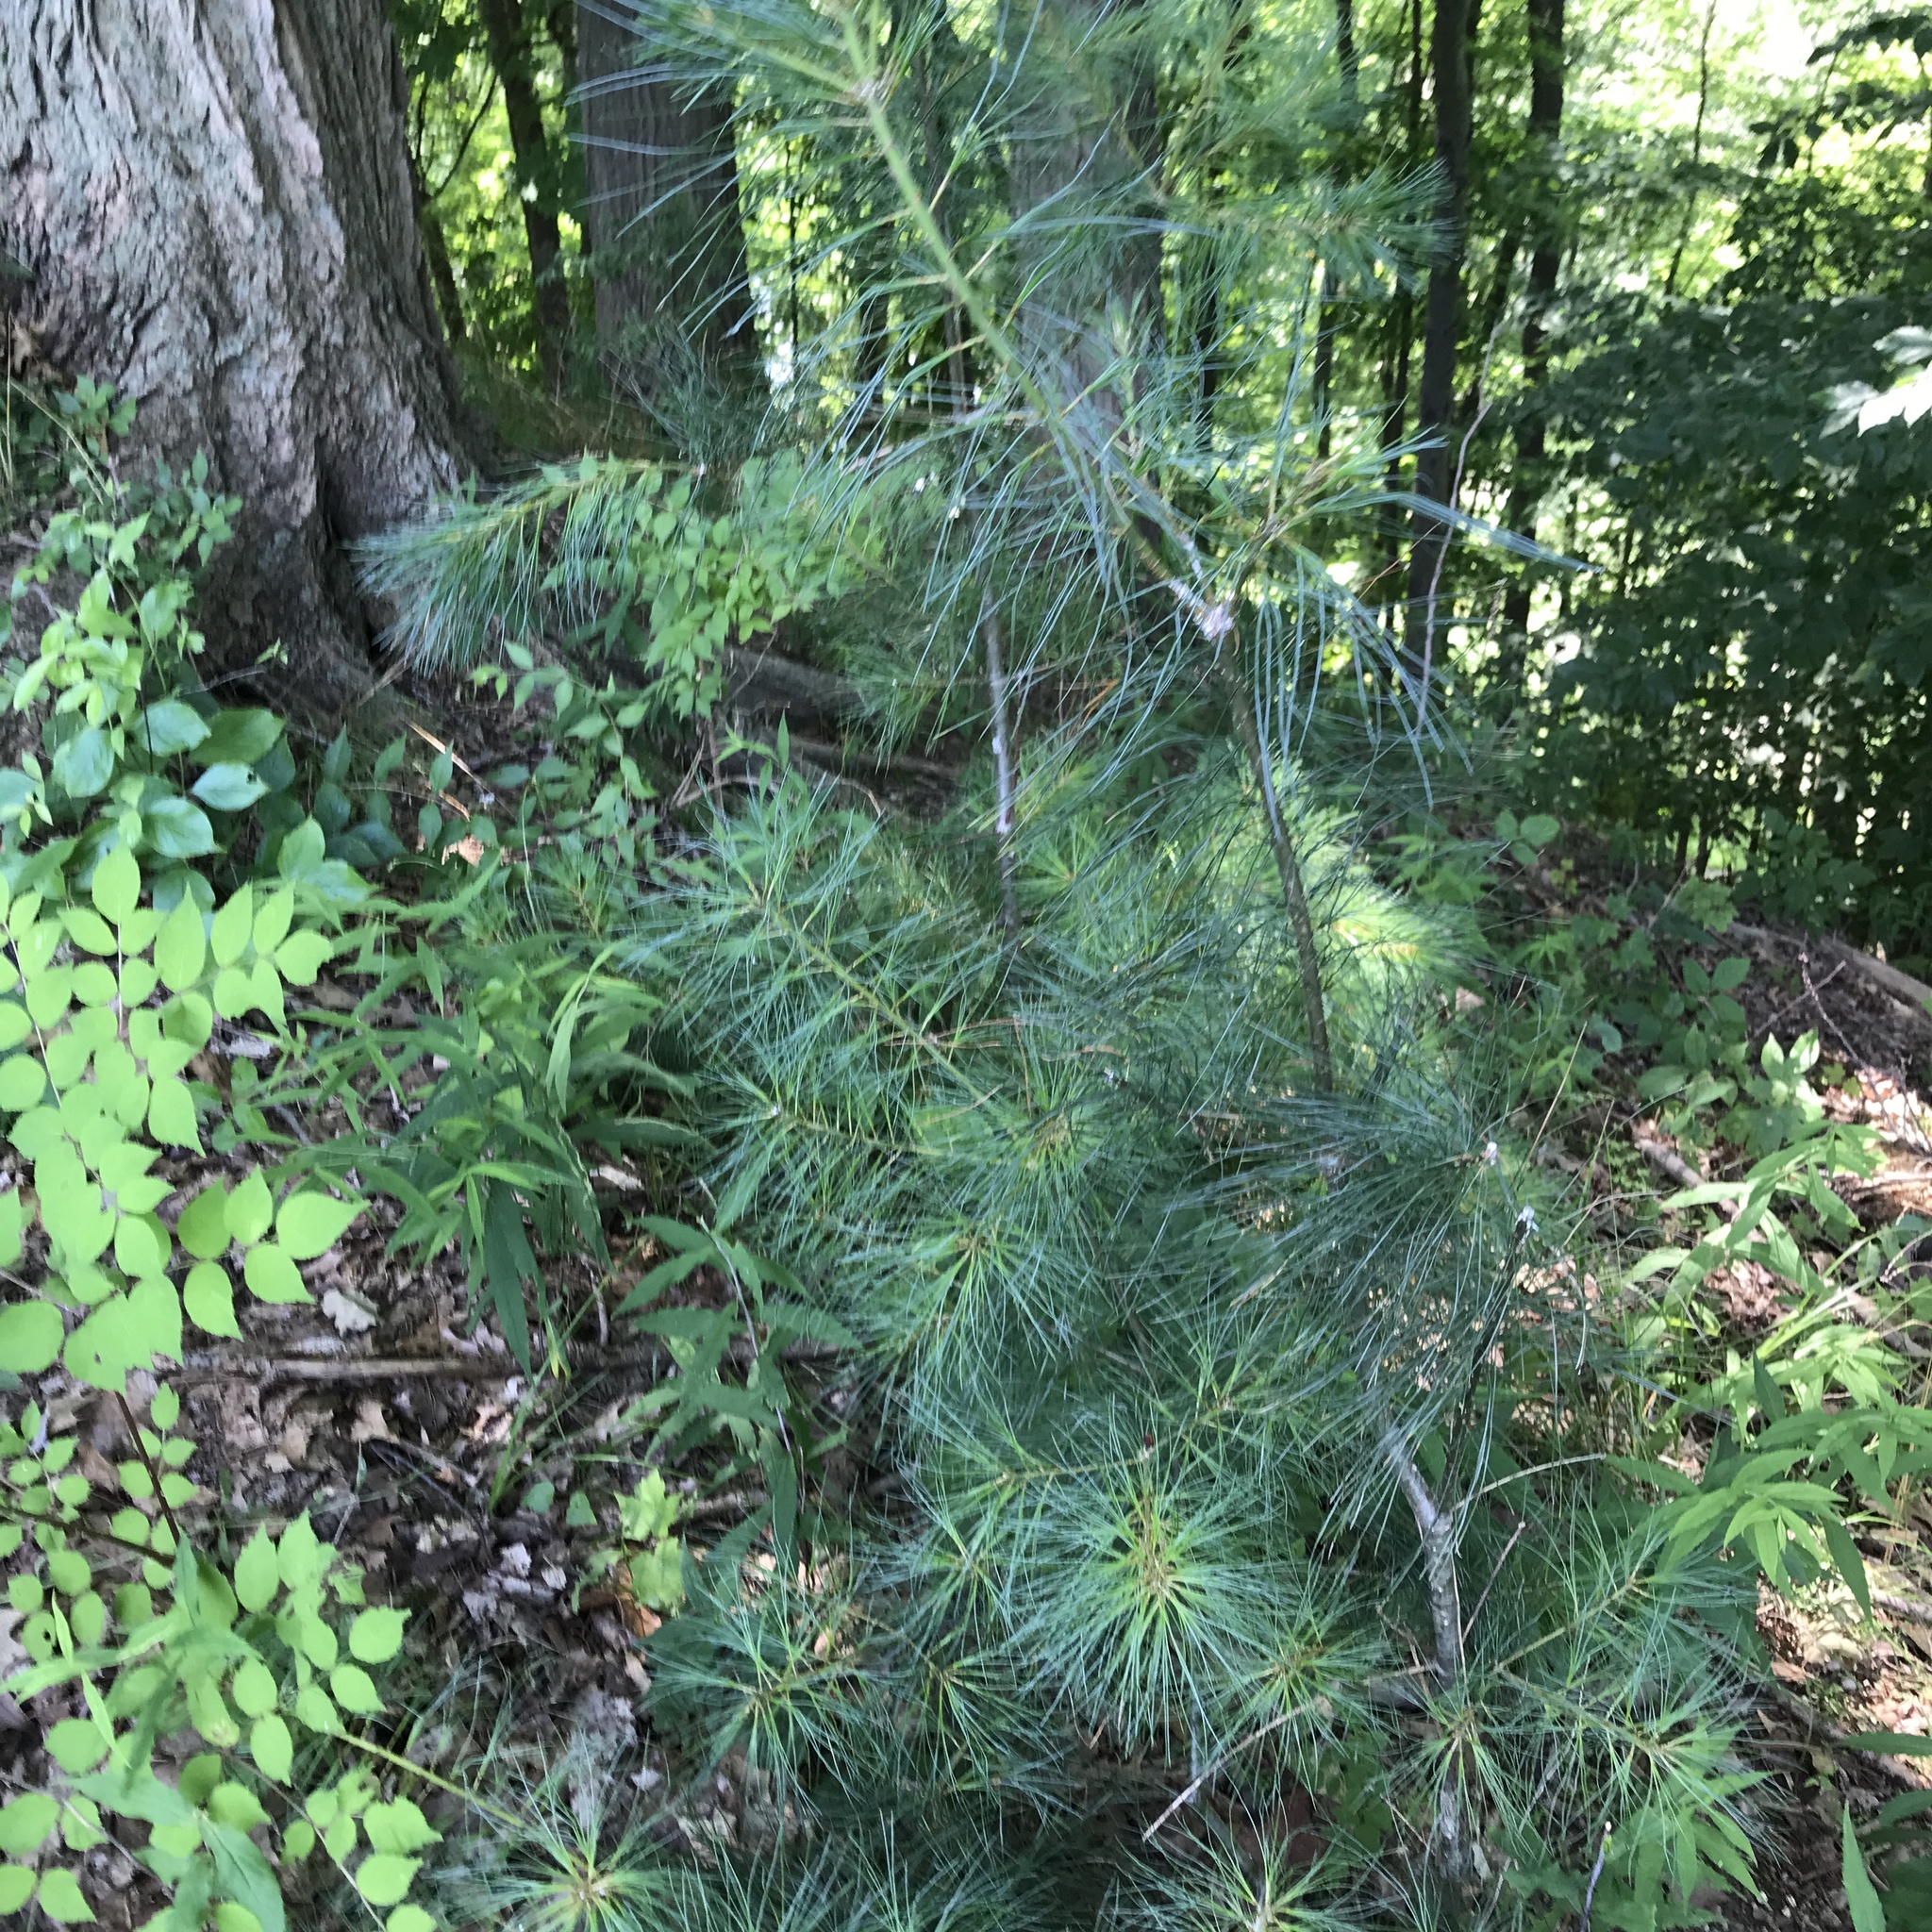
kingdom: Plantae
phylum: Tracheophyta
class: Pinopsida
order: Pinales
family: Pinaceae
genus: Pinus
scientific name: Pinus strobus
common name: Weymouth pine
